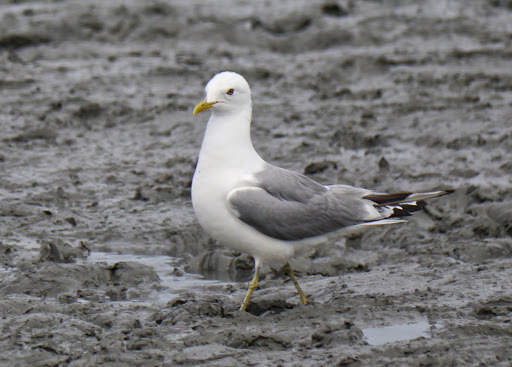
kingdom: Animalia
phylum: Chordata
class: Aves
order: Charadriiformes
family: Laridae
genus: Larus
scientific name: Larus brachyrhynchus
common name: Short-billed gull
